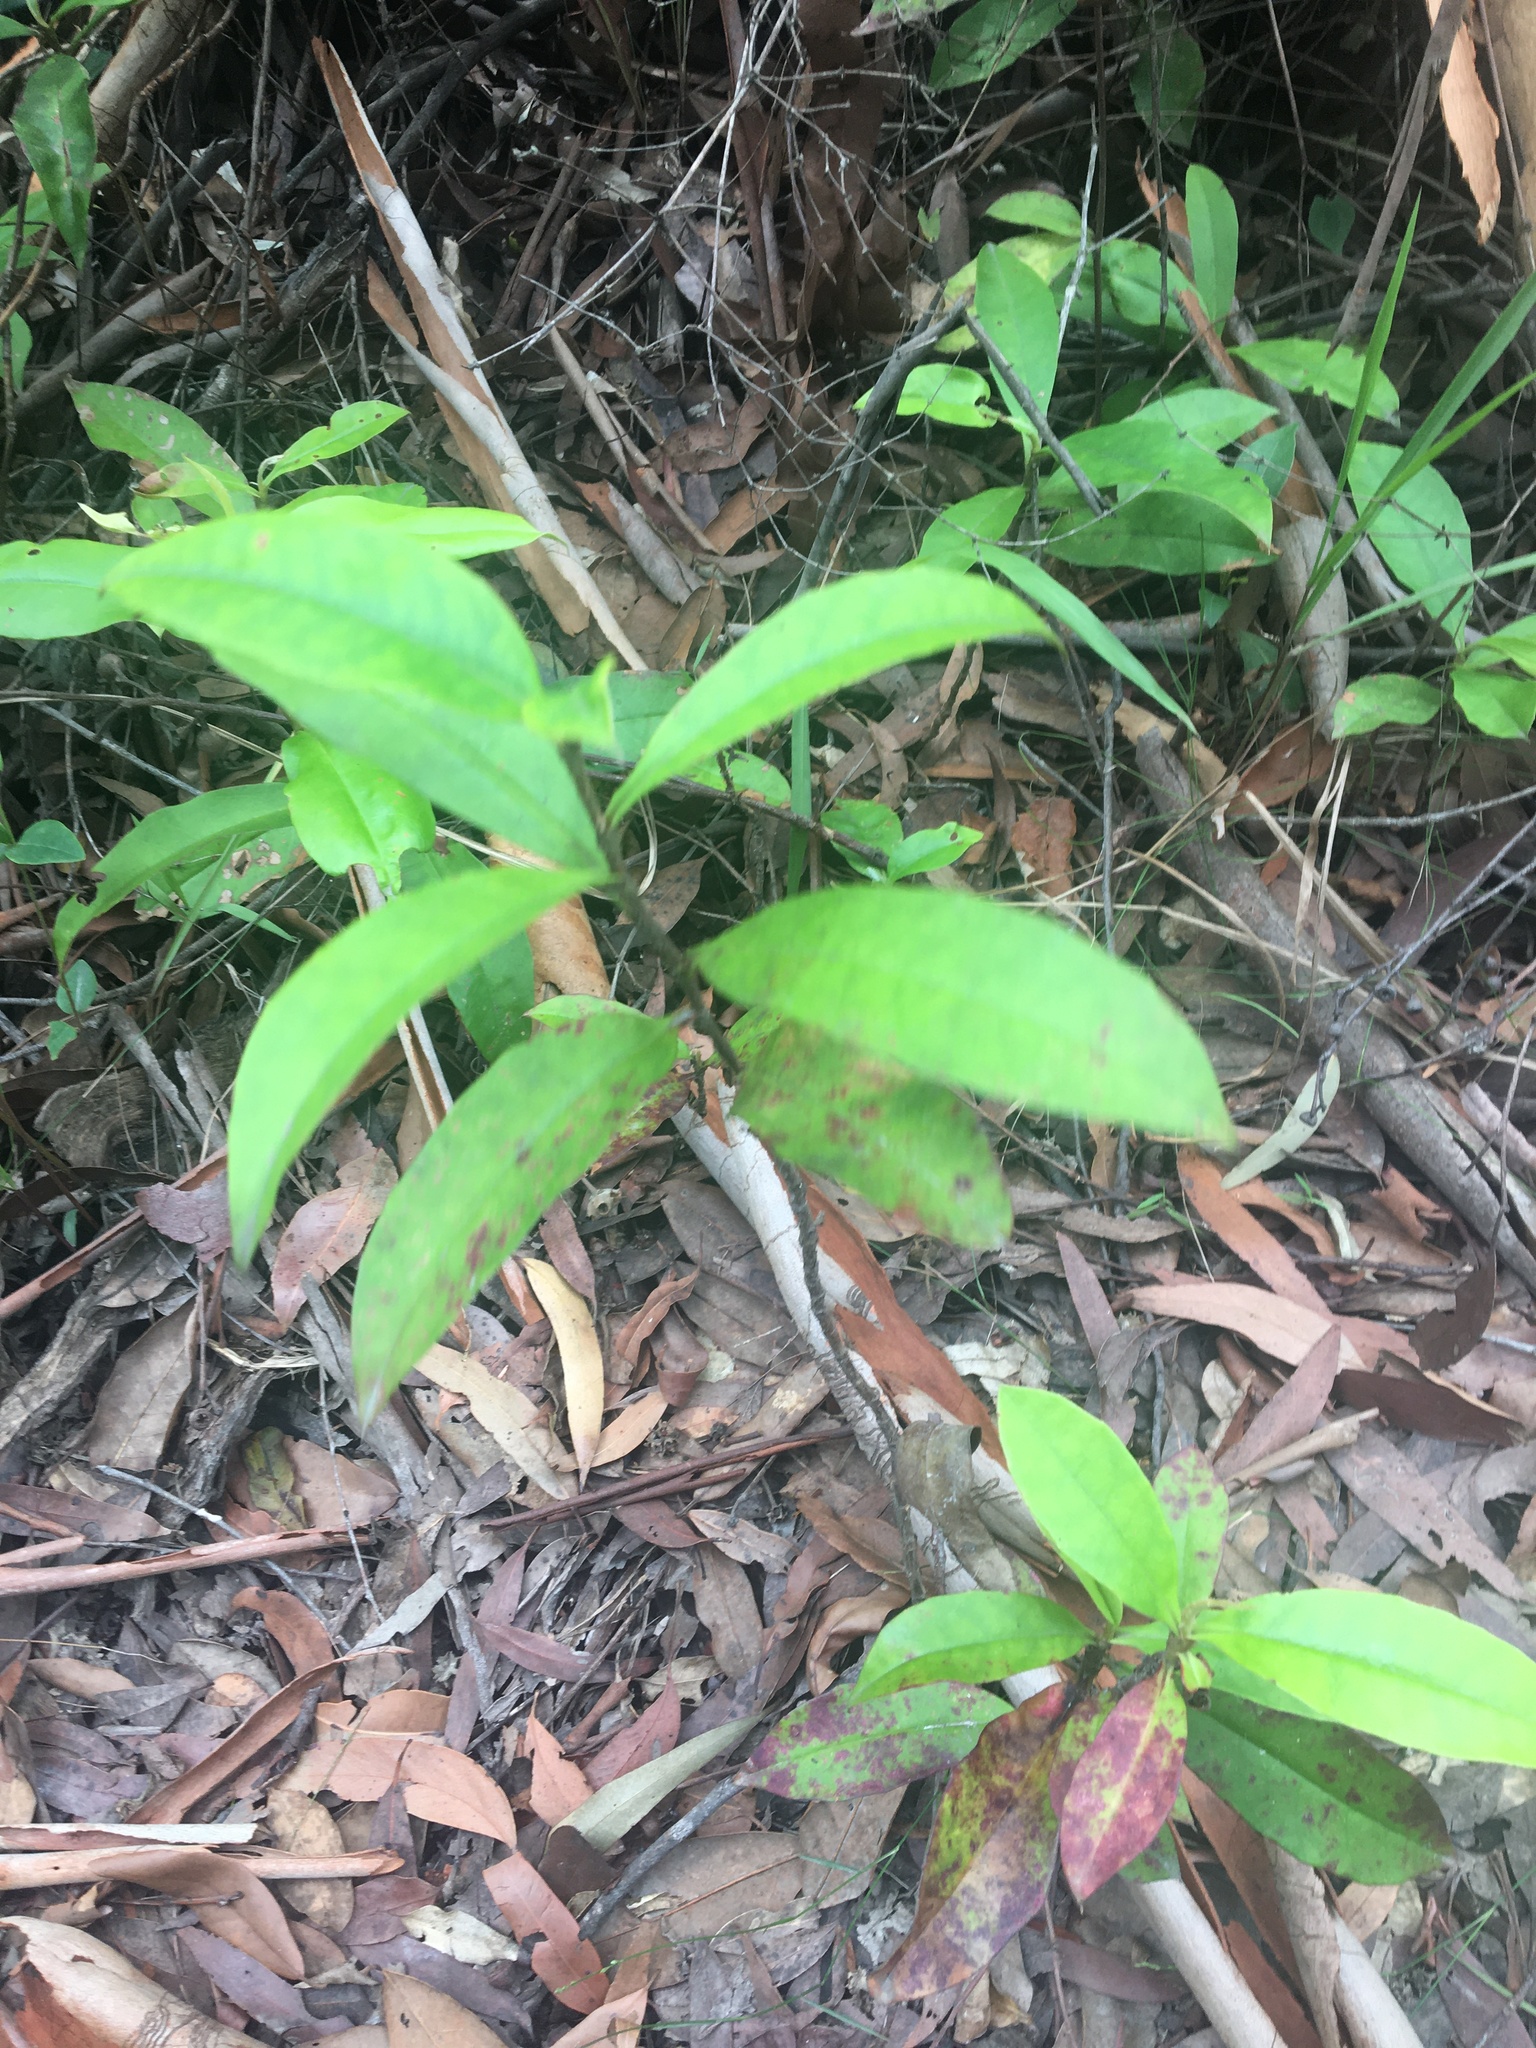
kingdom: Plantae
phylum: Tracheophyta
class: Magnoliopsida
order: Dilleniales
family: Dilleniaceae
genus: Hibbertia
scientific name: Hibbertia scandens
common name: Climbing guinea-flower
